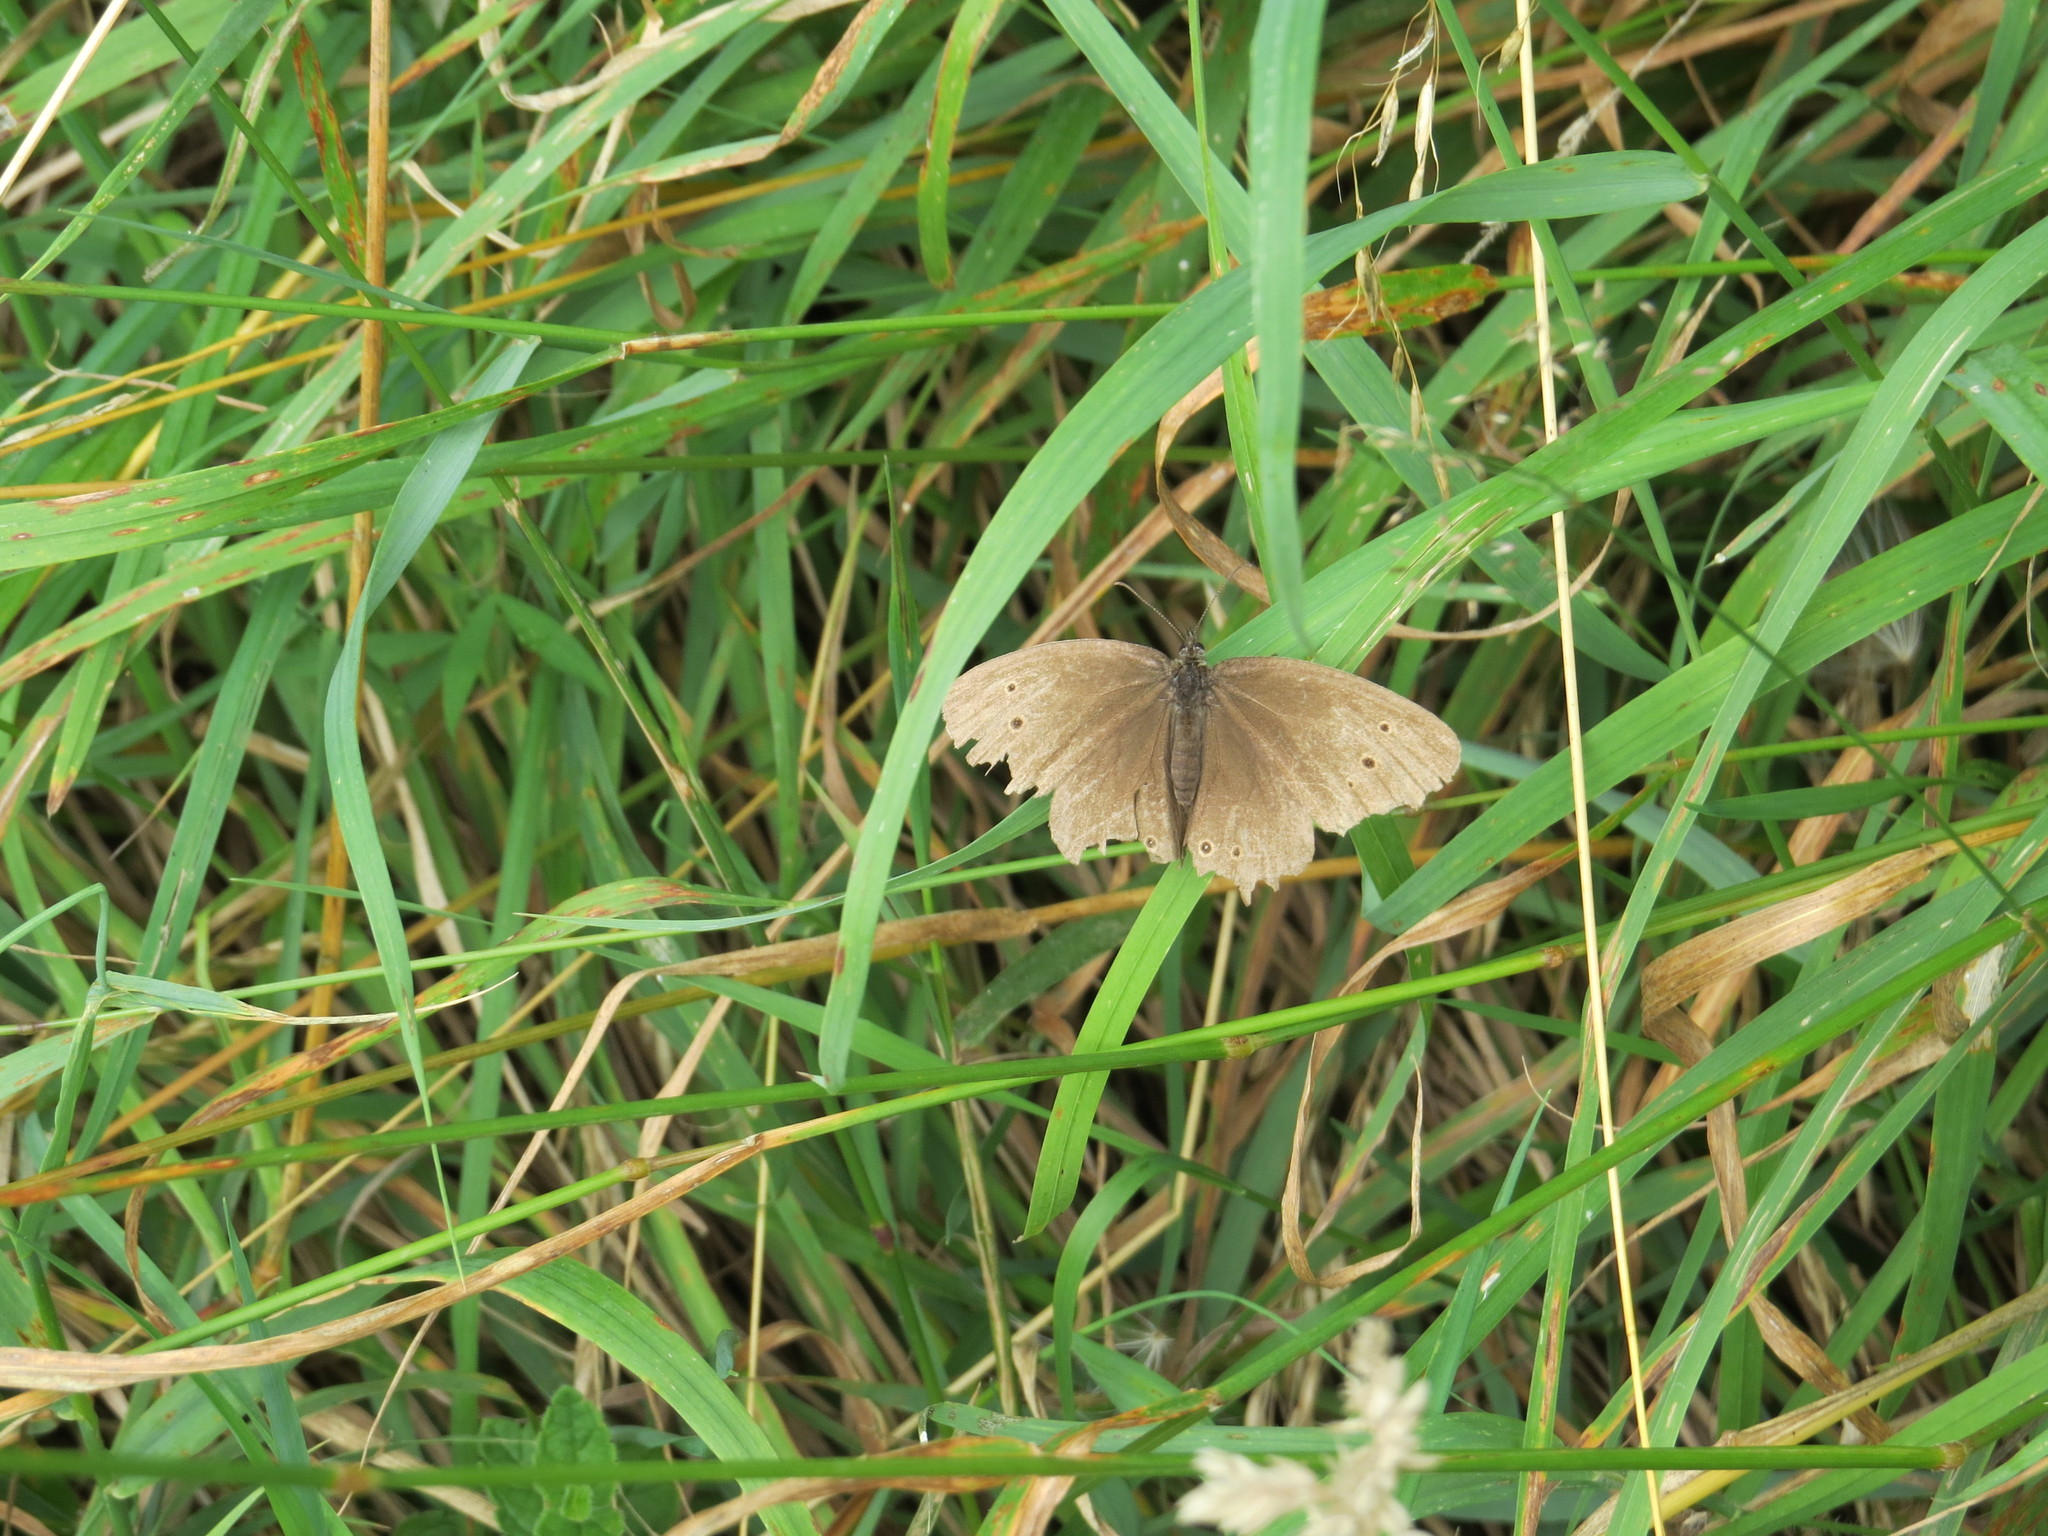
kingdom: Animalia
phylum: Arthropoda
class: Insecta
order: Lepidoptera
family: Nymphalidae
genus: Aphantopus
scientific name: Aphantopus hyperantus
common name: Ringlet
